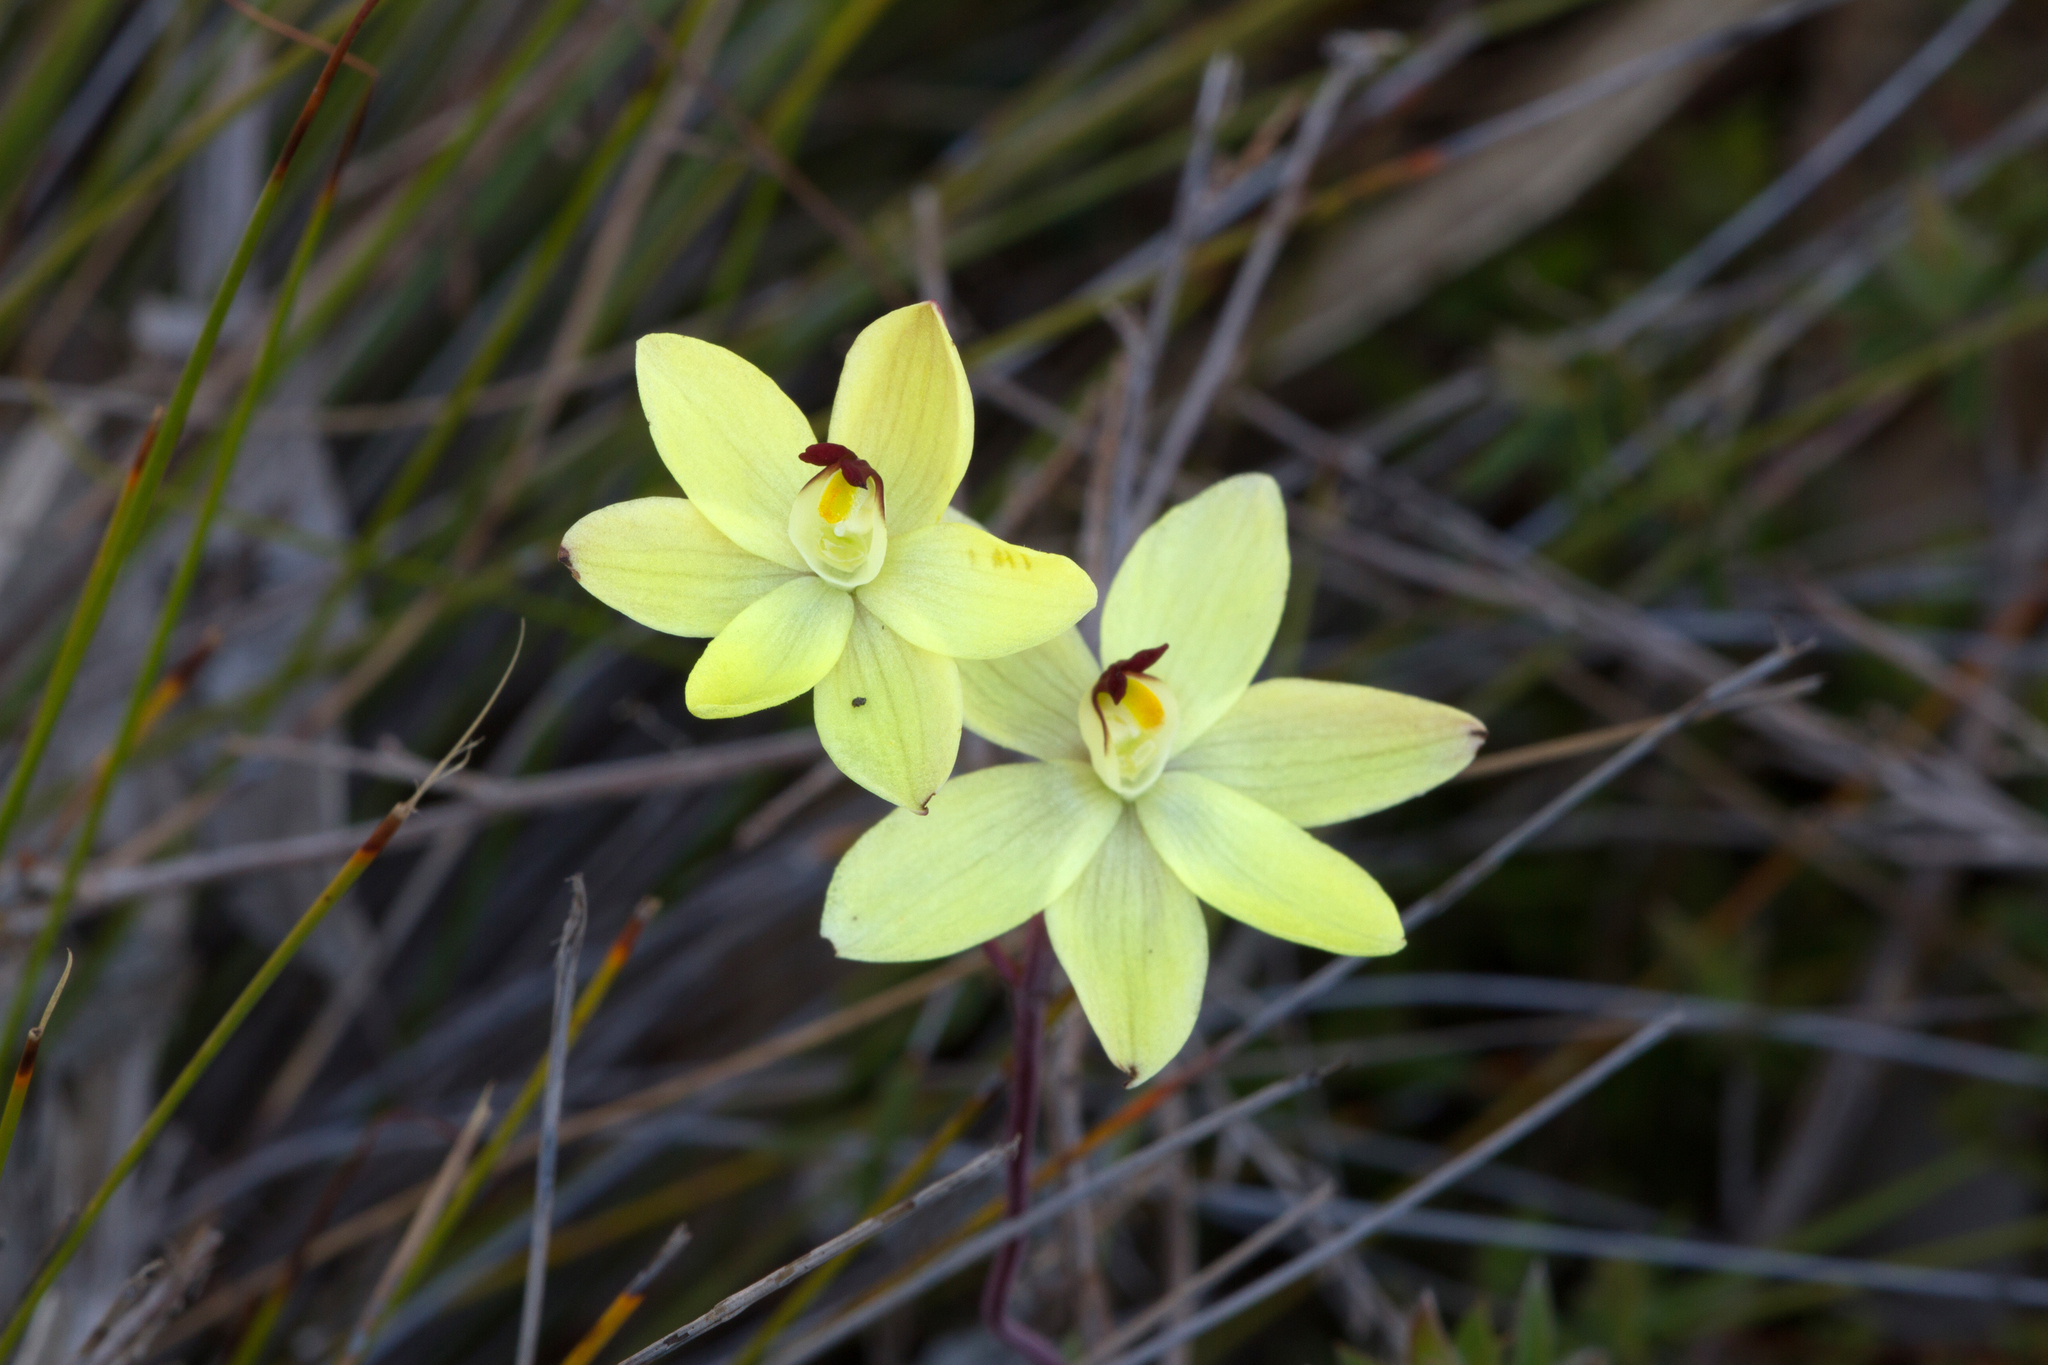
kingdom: Plantae
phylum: Tracheophyta
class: Liliopsida
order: Asparagales
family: Orchidaceae
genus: Thelymitra
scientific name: Thelymitra antennifera
